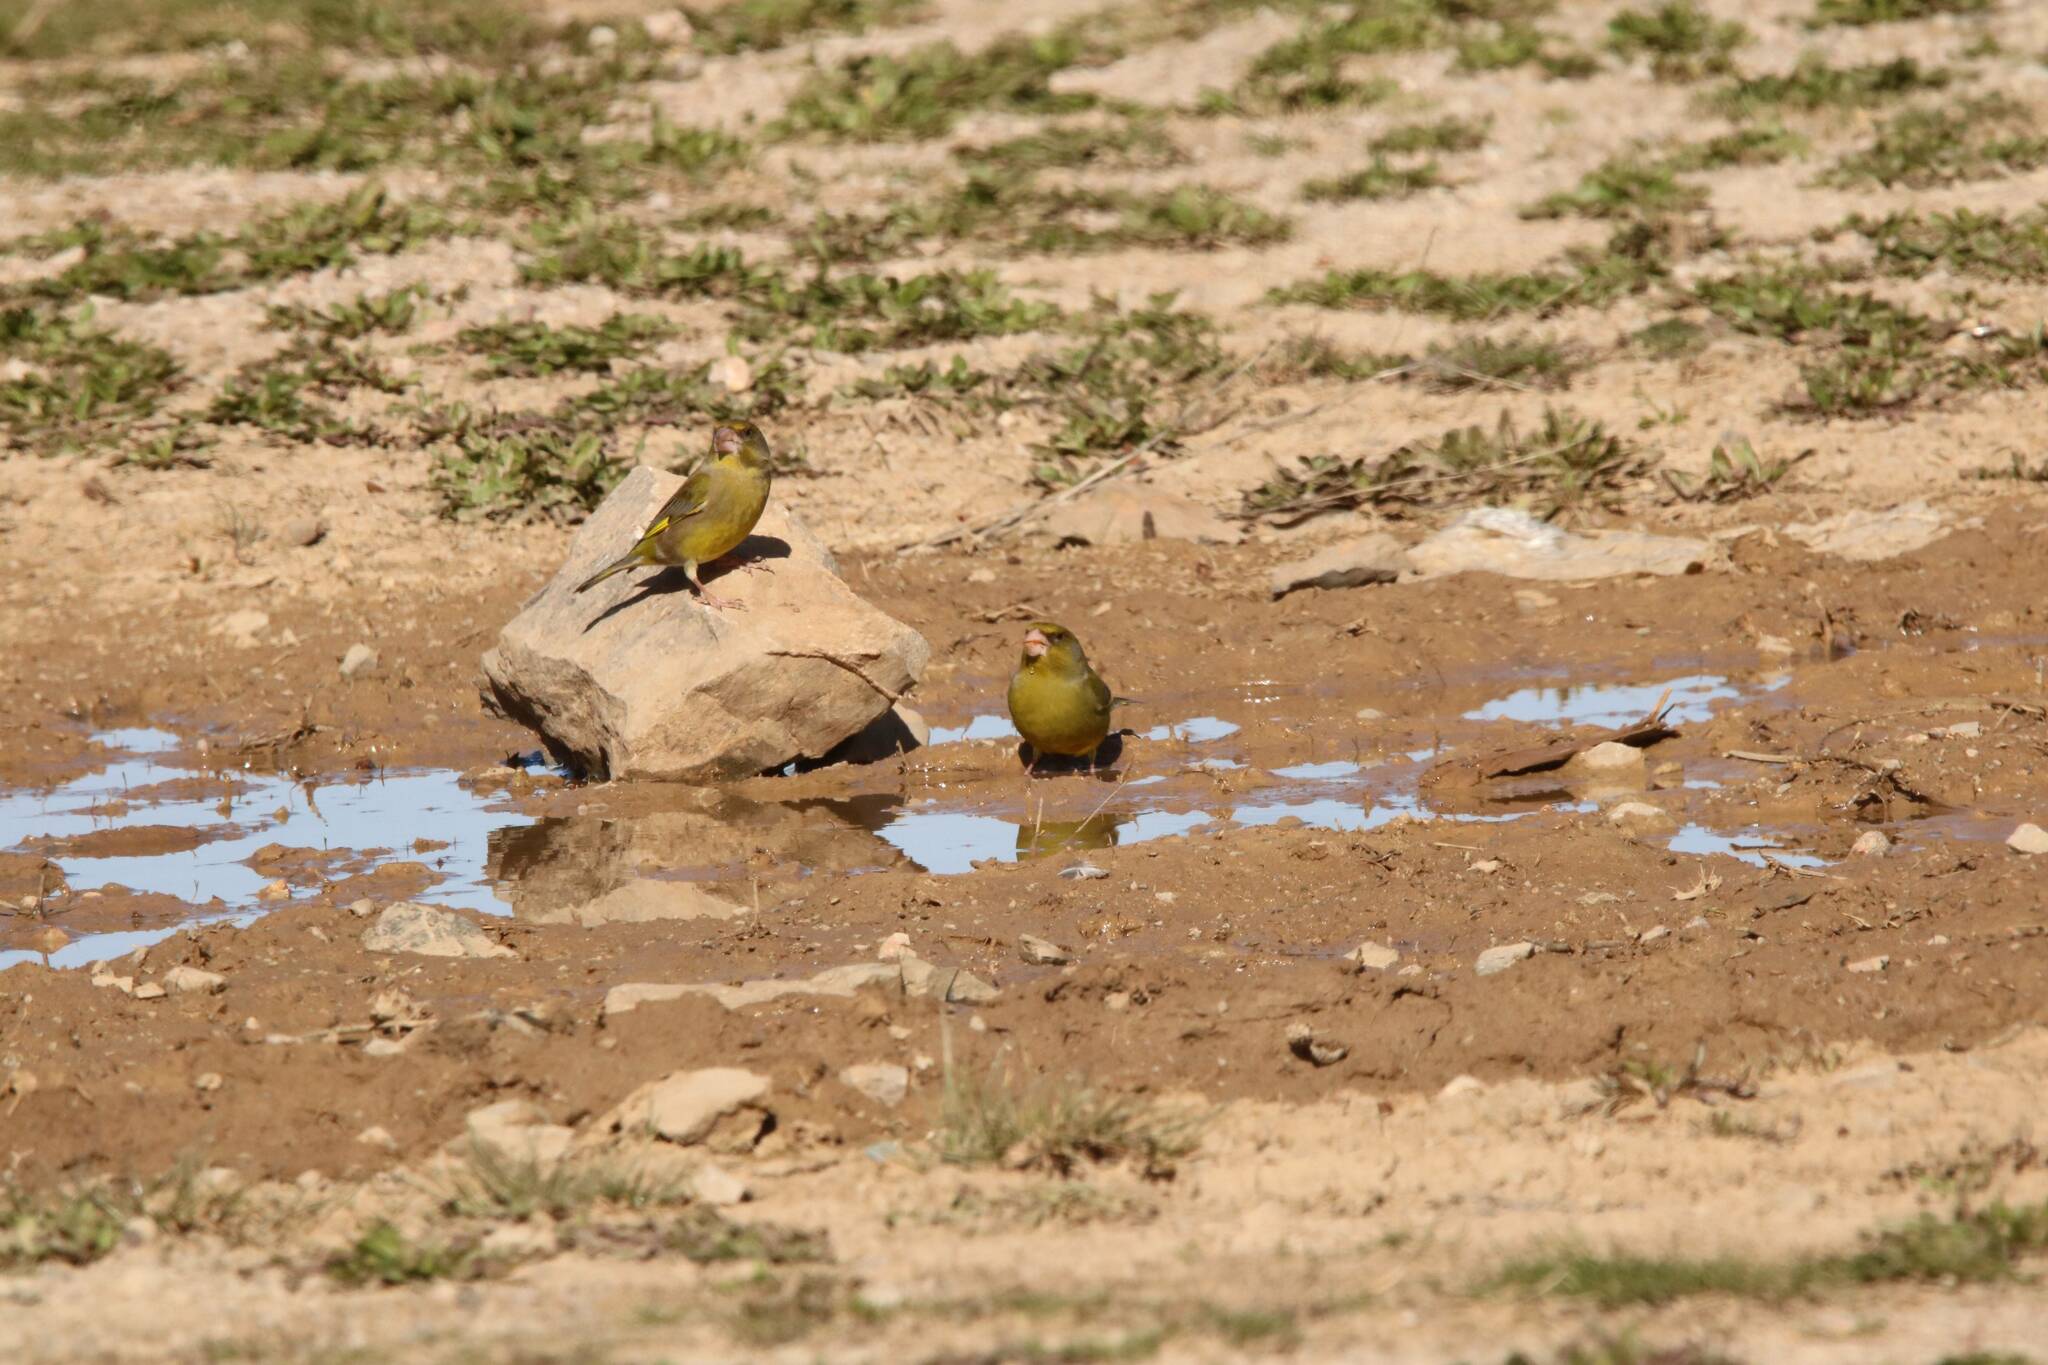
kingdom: Plantae
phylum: Tracheophyta
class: Liliopsida
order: Poales
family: Poaceae
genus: Chloris
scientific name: Chloris chloris
